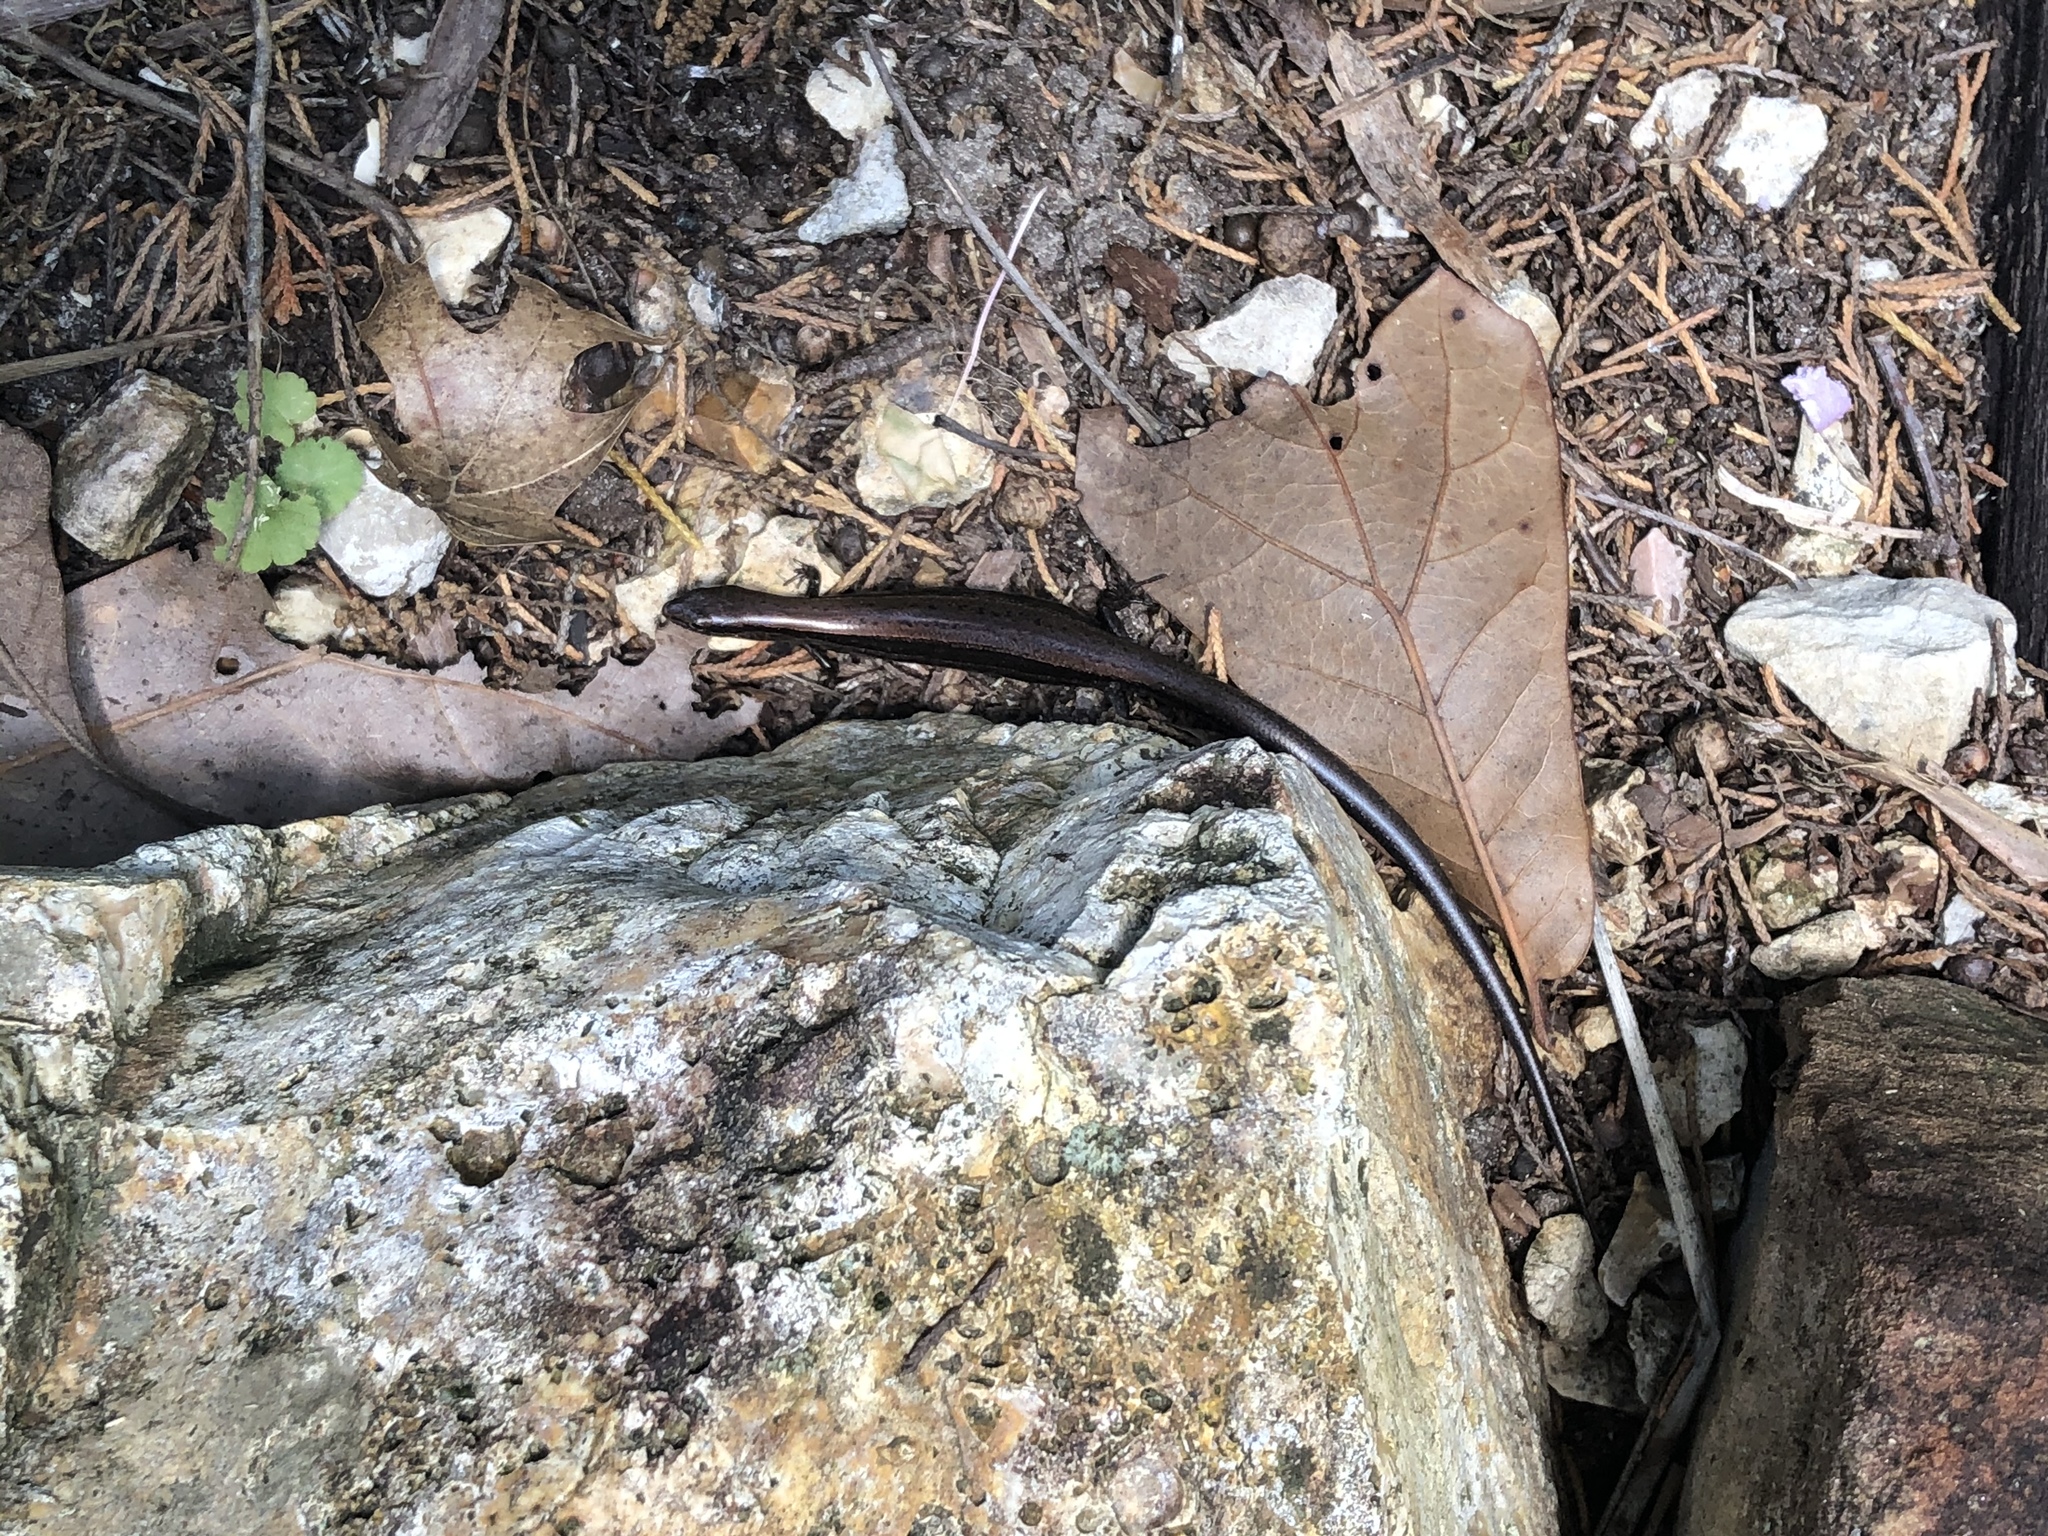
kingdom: Animalia
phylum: Chordata
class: Squamata
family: Scincidae
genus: Scincella
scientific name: Scincella lateralis
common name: Ground skink
